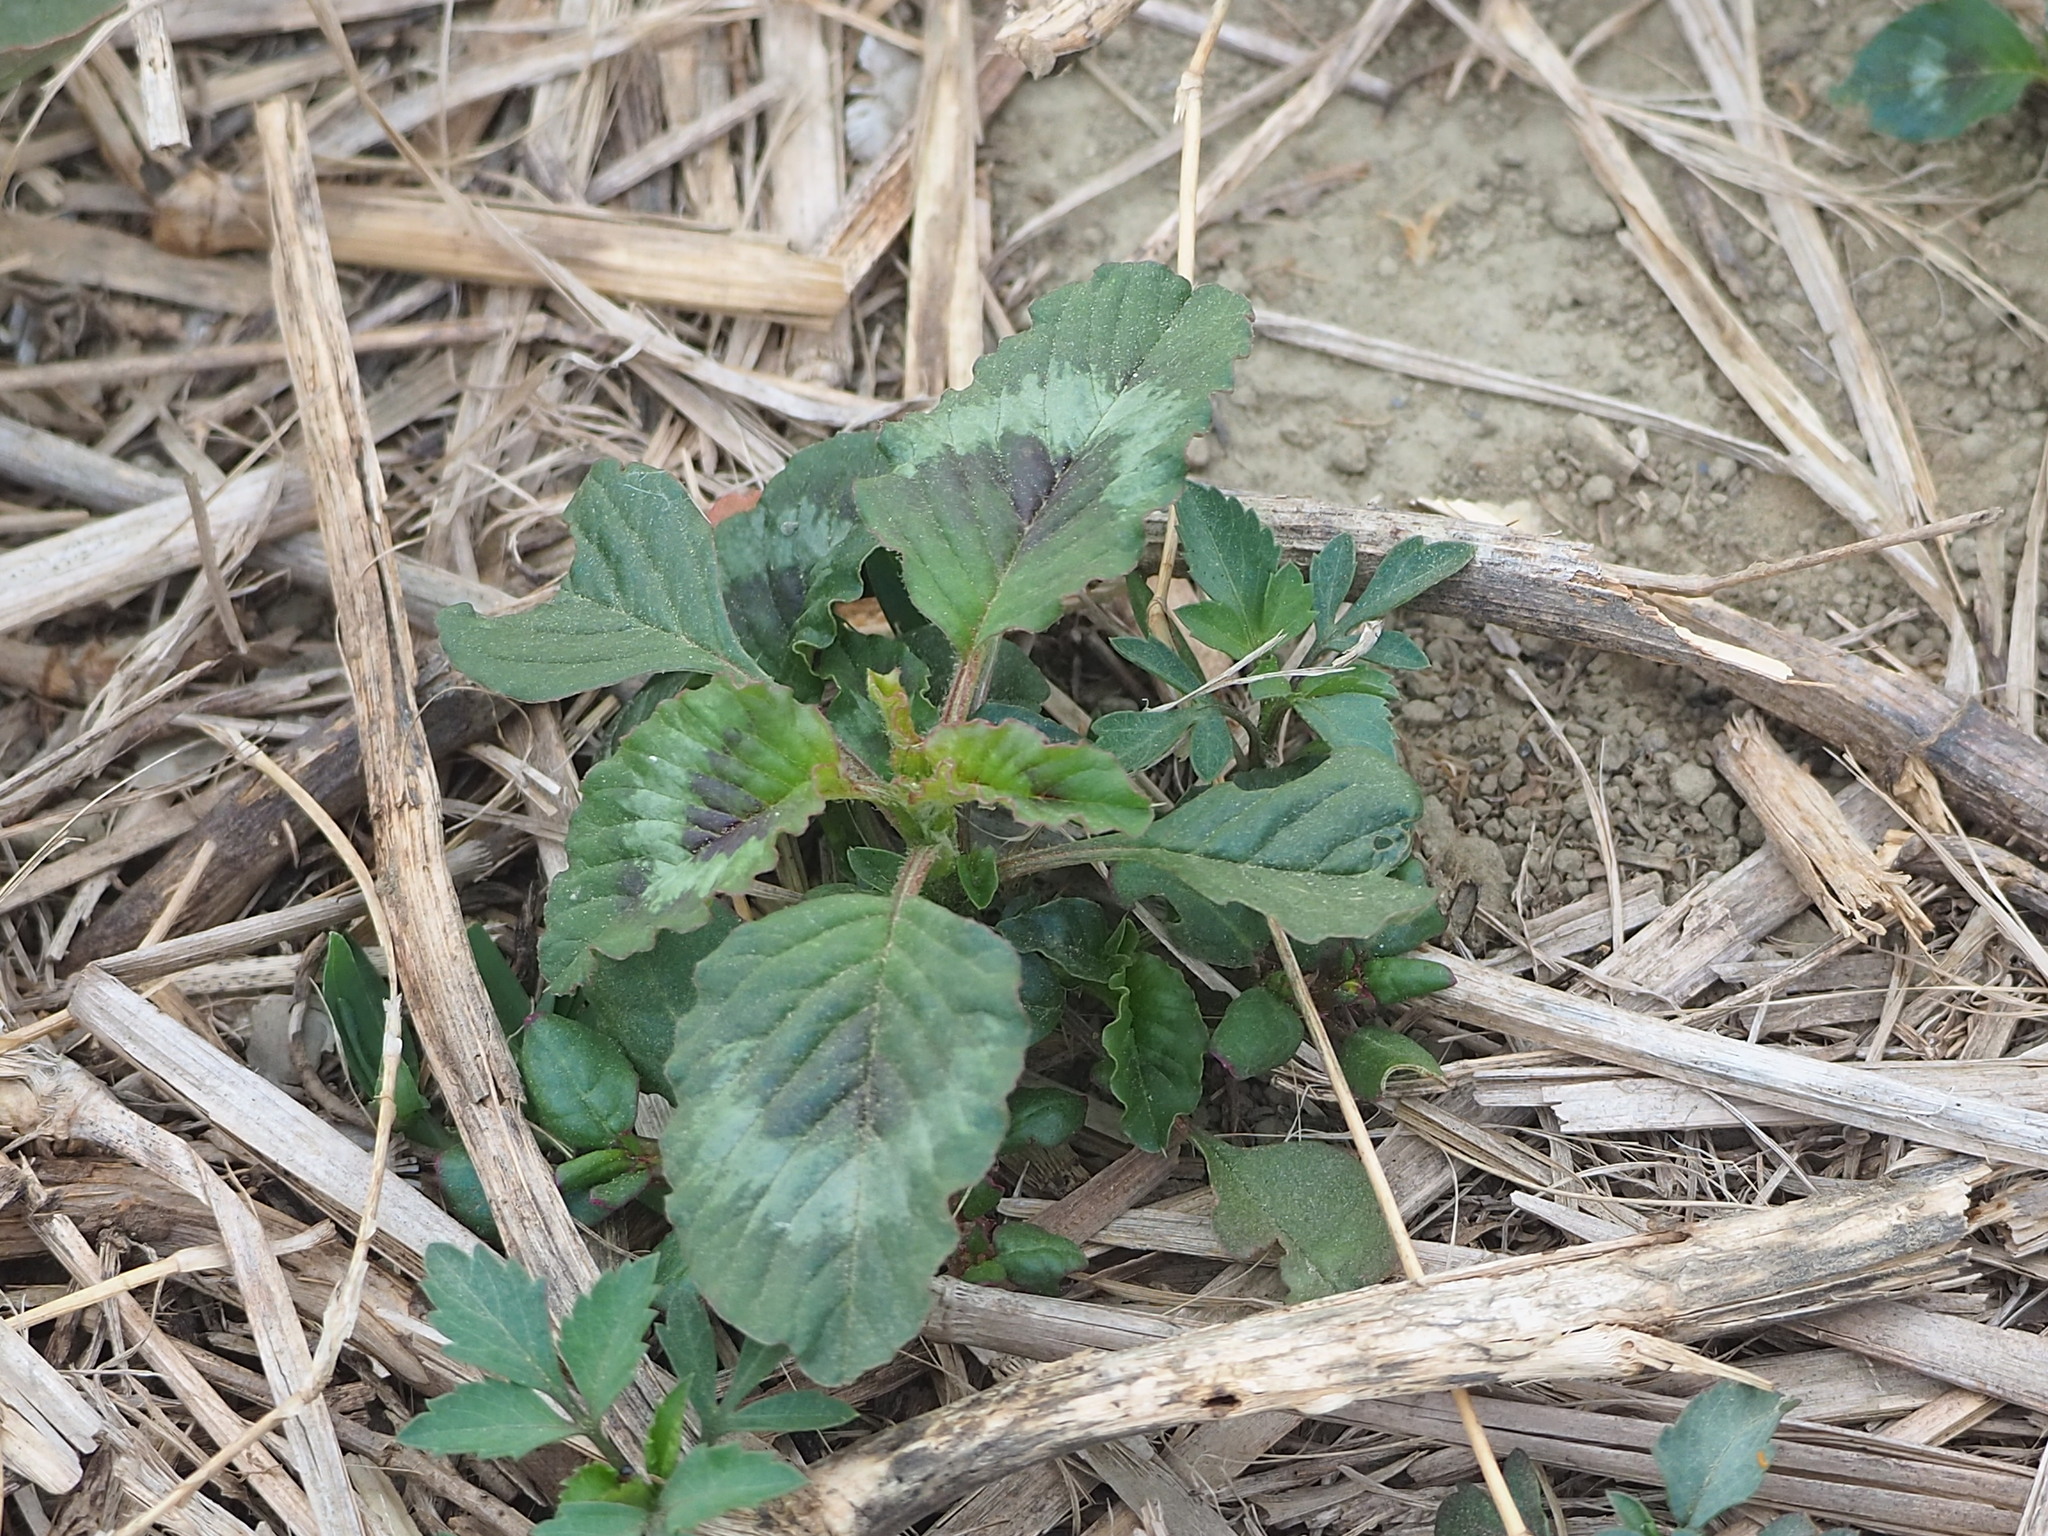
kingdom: Plantae
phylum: Tracheophyta
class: Magnoliopsida
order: Caryophyllales
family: Amaranthaceae
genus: Amaranthus
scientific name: Amaranthus blitum
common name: Purple amaranth
